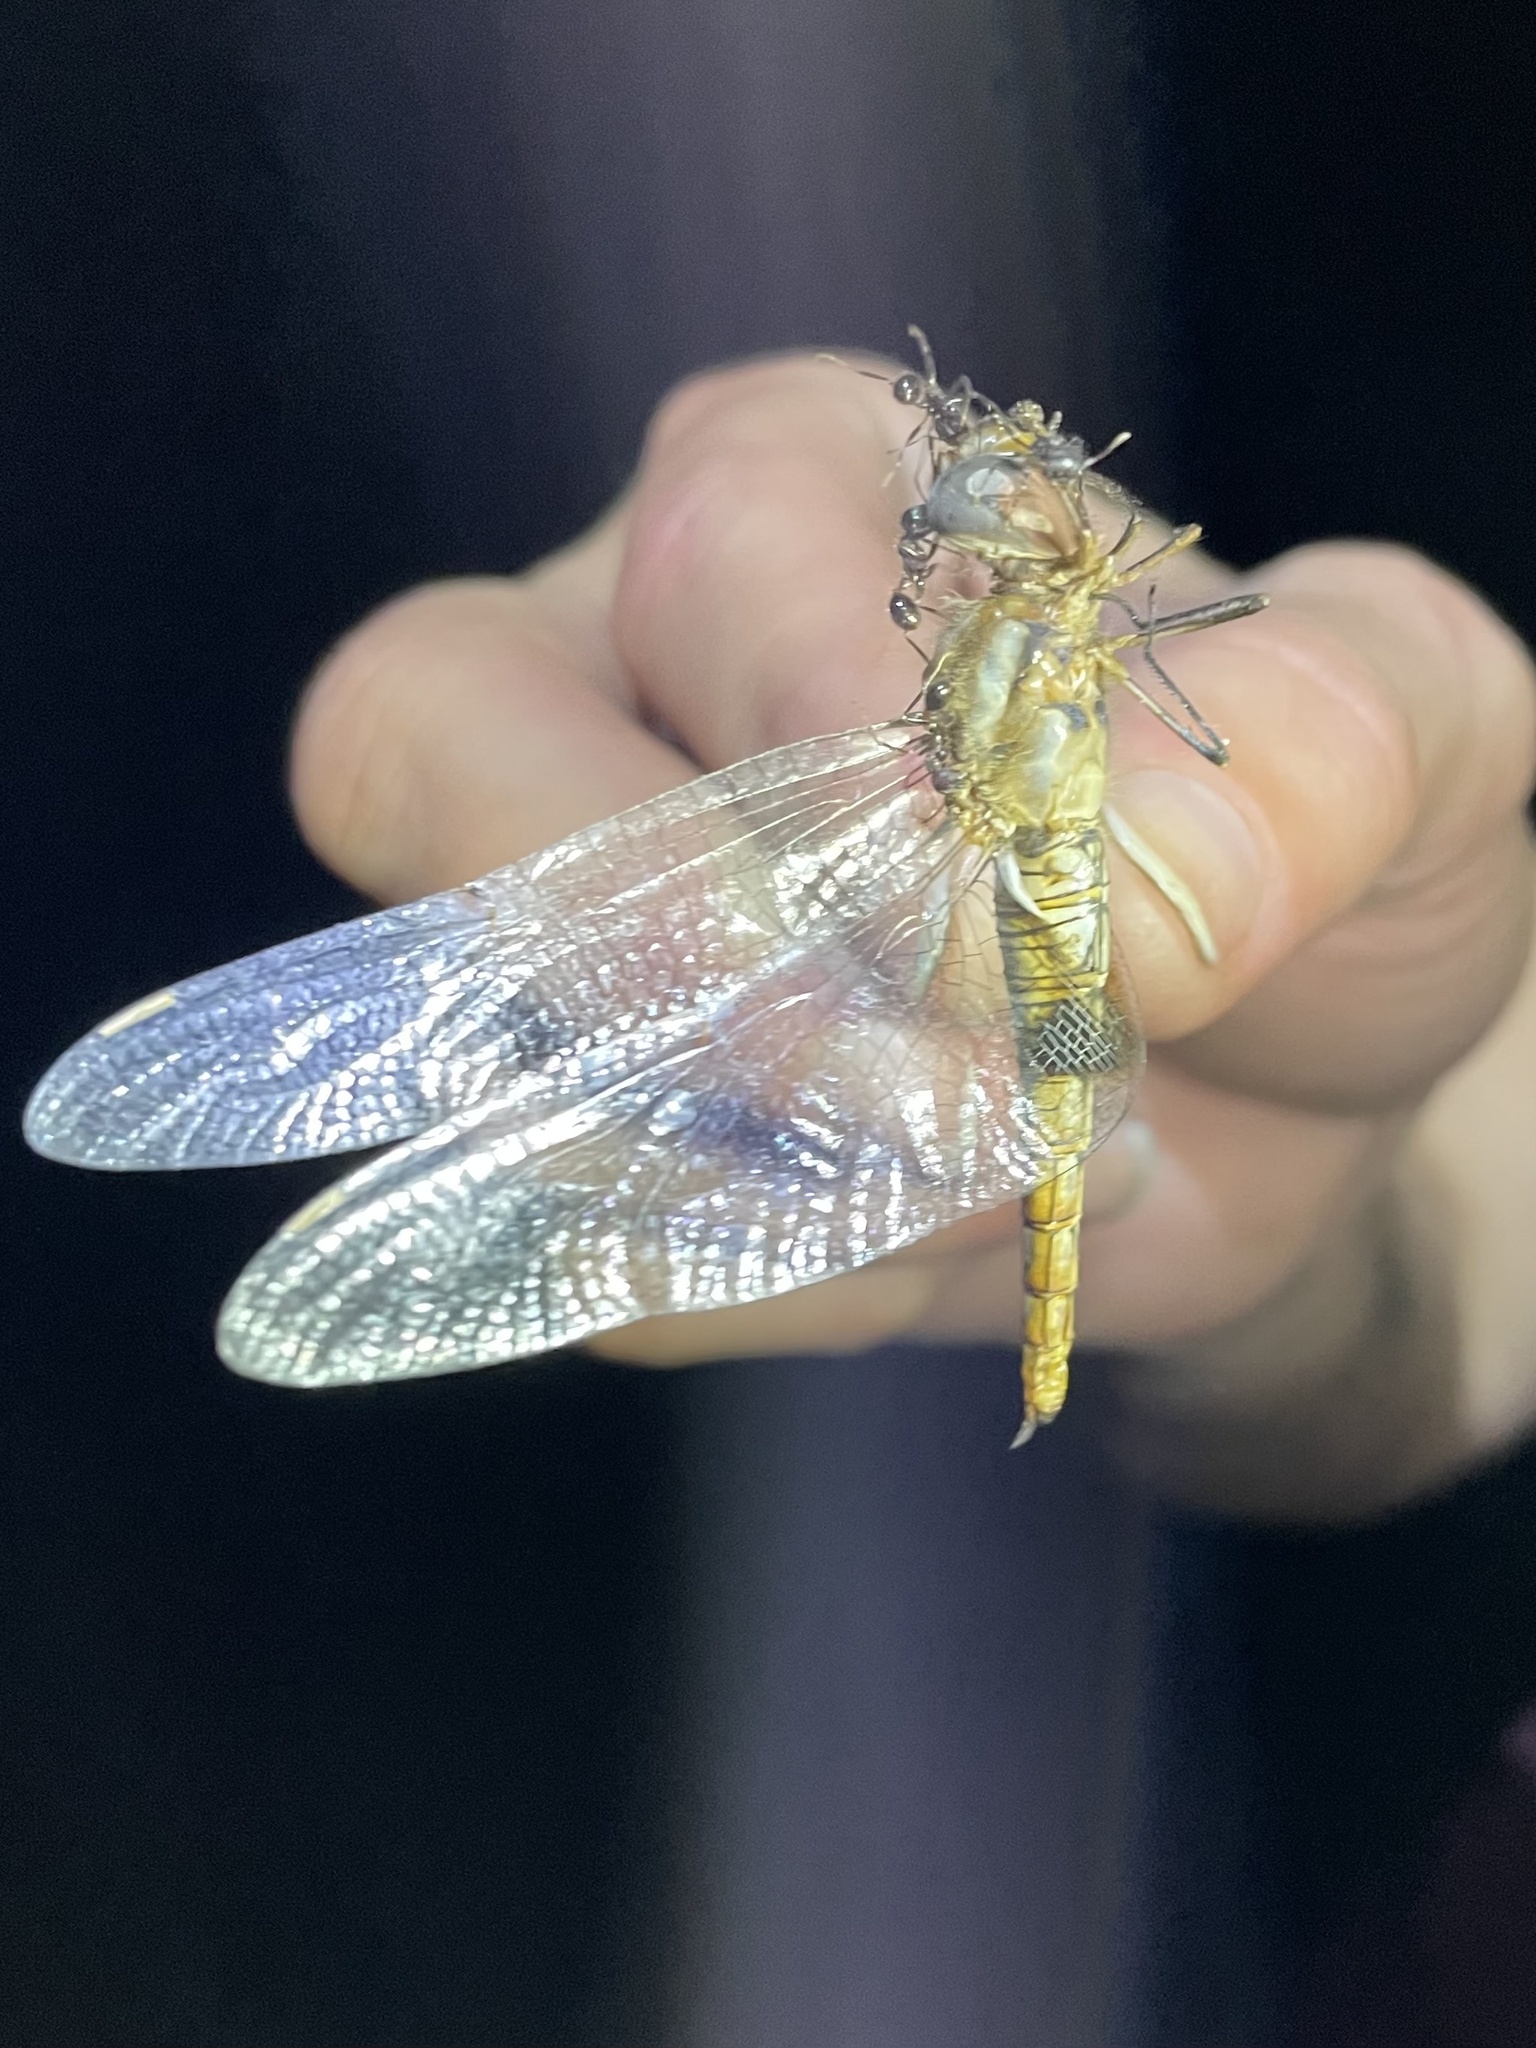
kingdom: Animalia
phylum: Arthropoda
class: Insecta
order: Odonata
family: Libellulidae
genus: Pantala
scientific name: Pantala hymenaea
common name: Spot-winged glider
